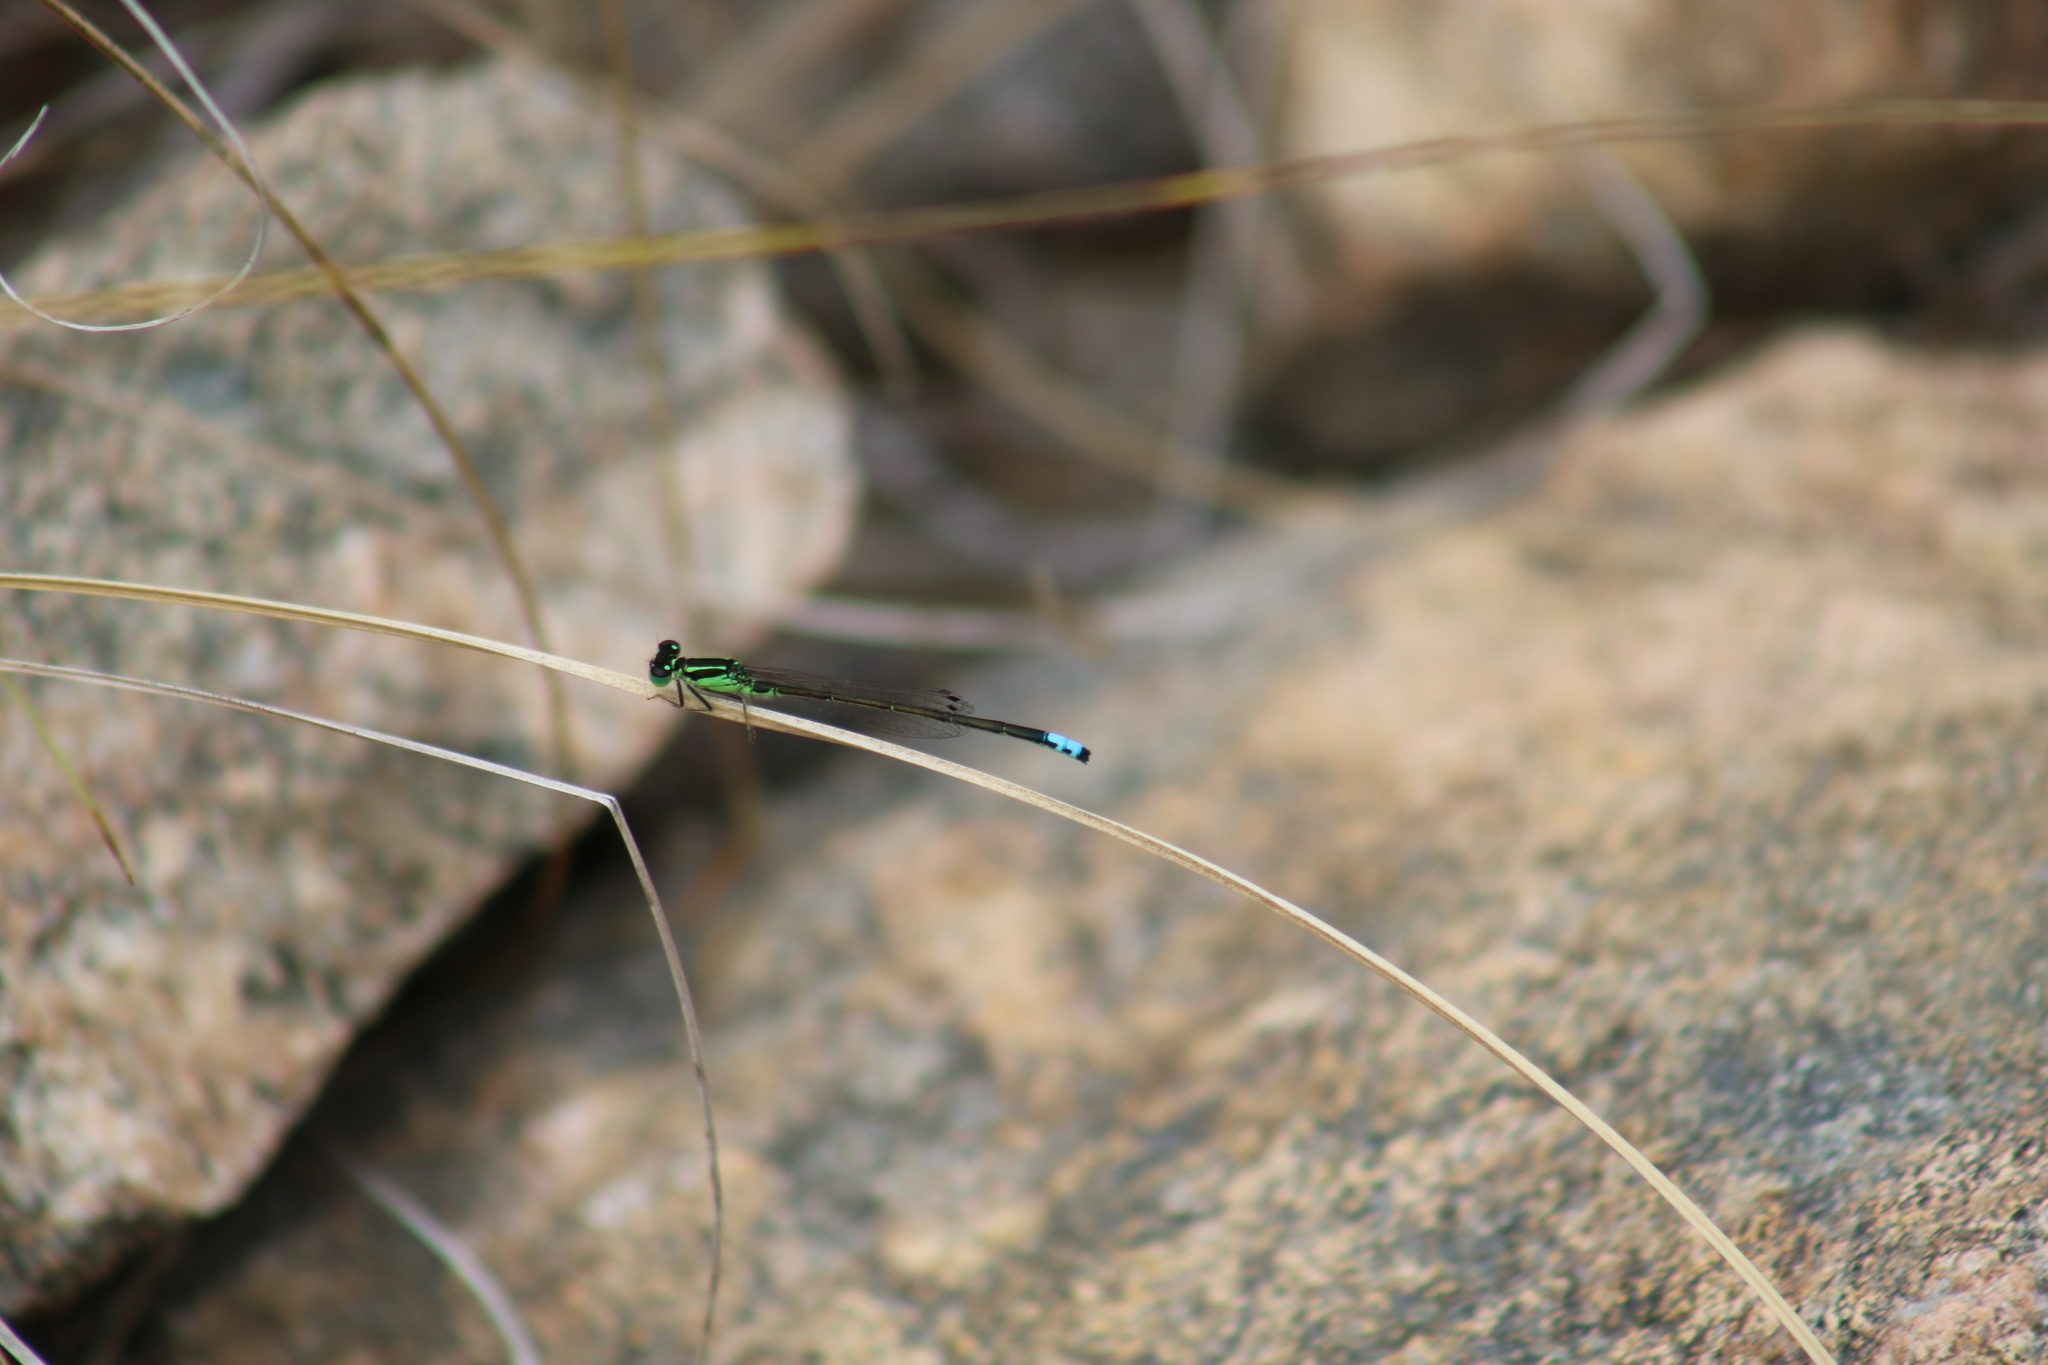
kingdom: Animalia
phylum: Arthropoda
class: Insecta
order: Odonata
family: Coenagrionidae
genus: Ischnura
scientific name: Ischnura verticalis
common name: Eastern forktail
